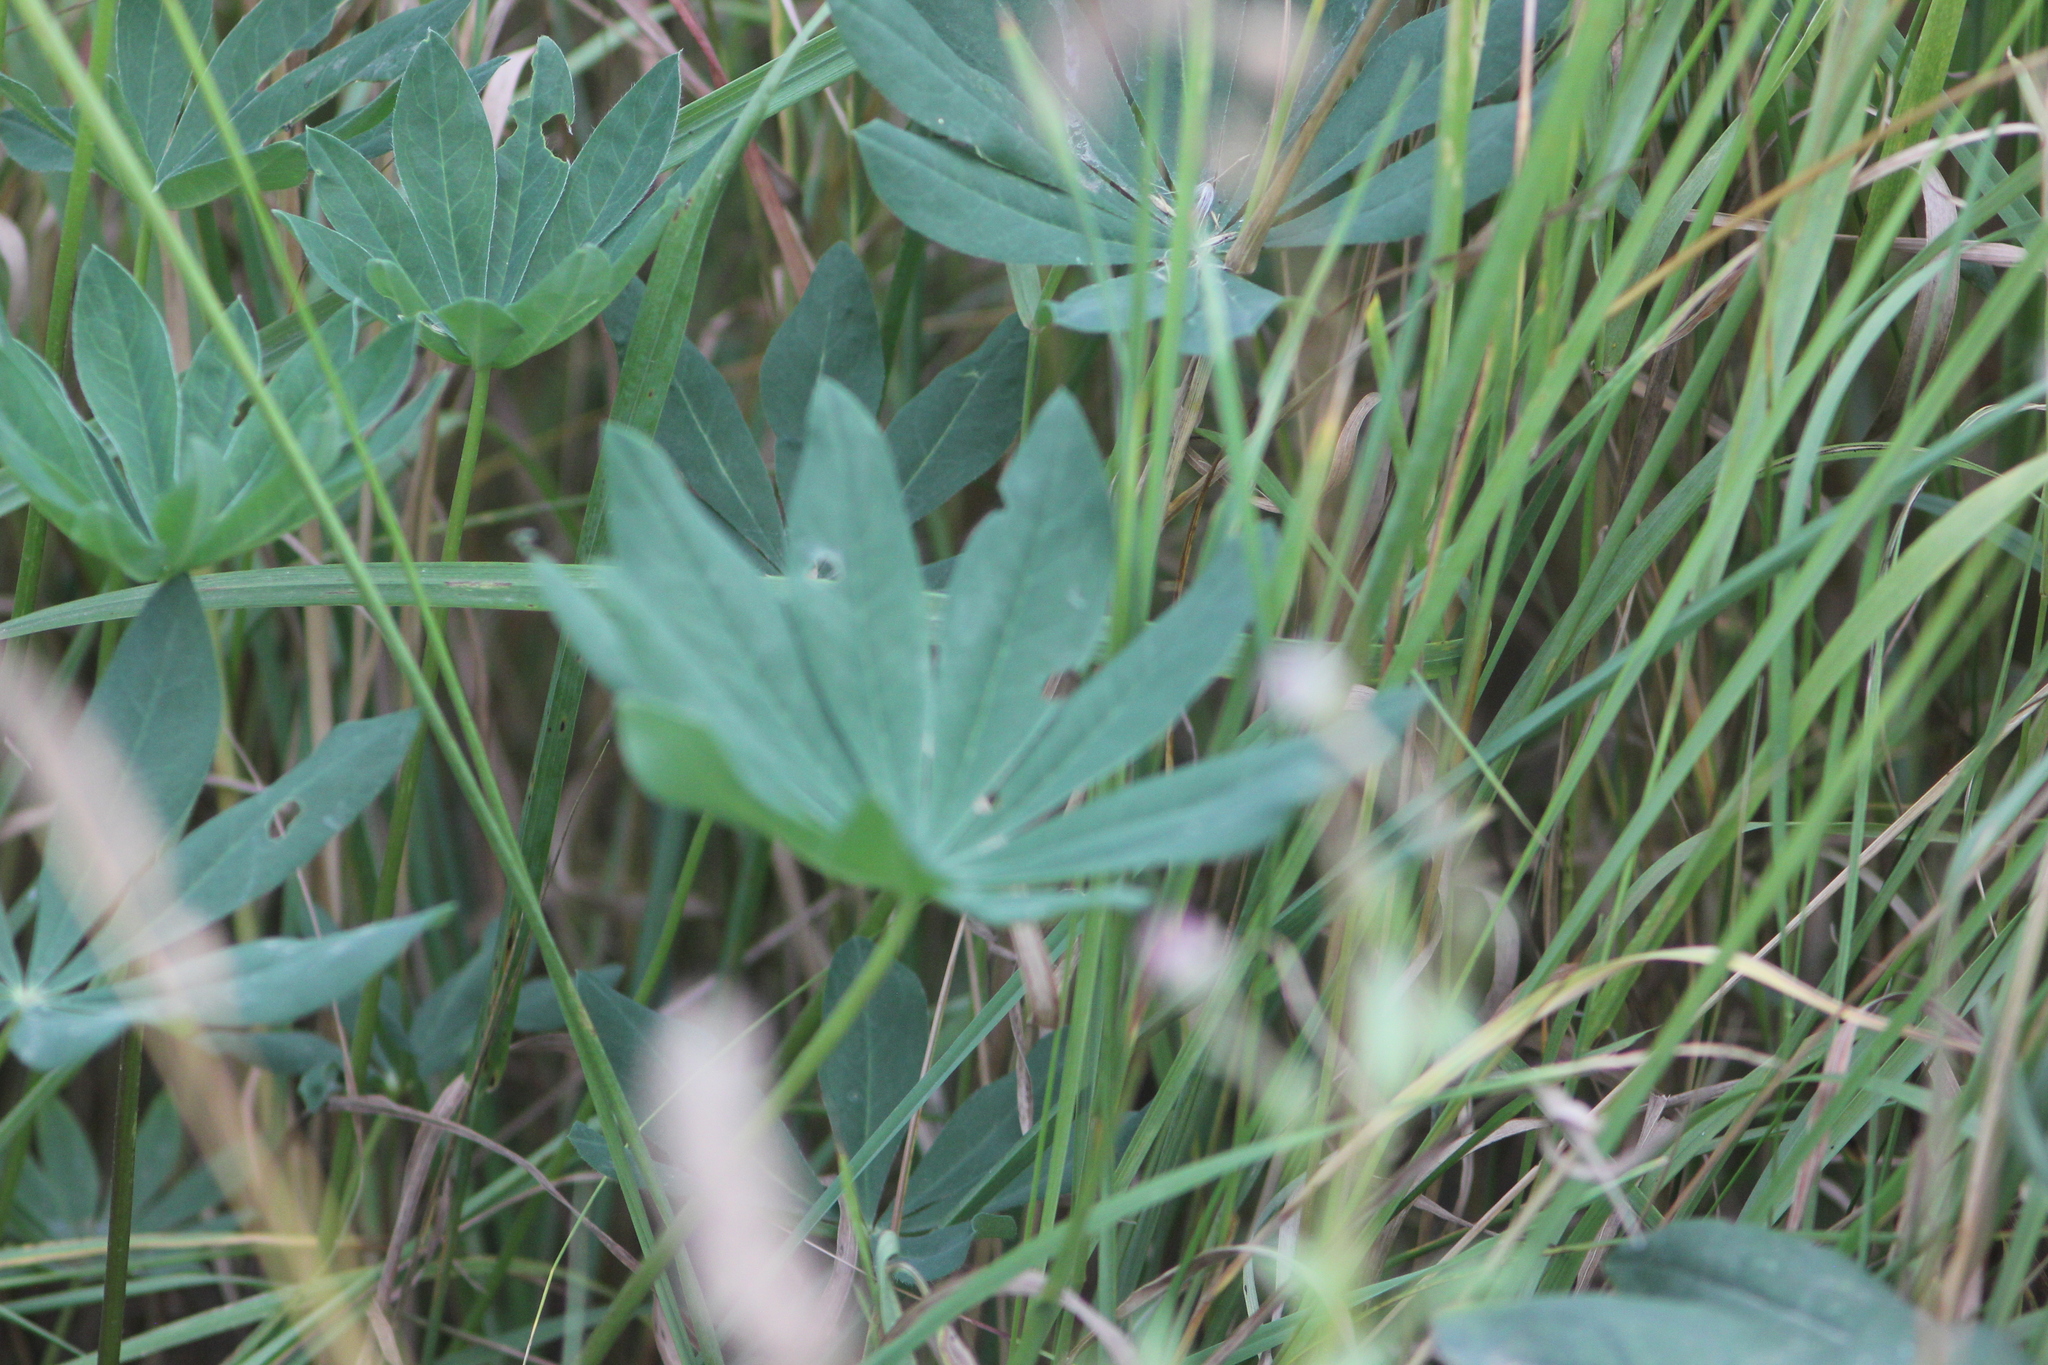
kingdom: Plantae
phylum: Tracheophyta
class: Magnoliopsida
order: Fabales
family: Fabaceae
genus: Lupinus
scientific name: Lupinus polyphyllus
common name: Garden lupin
